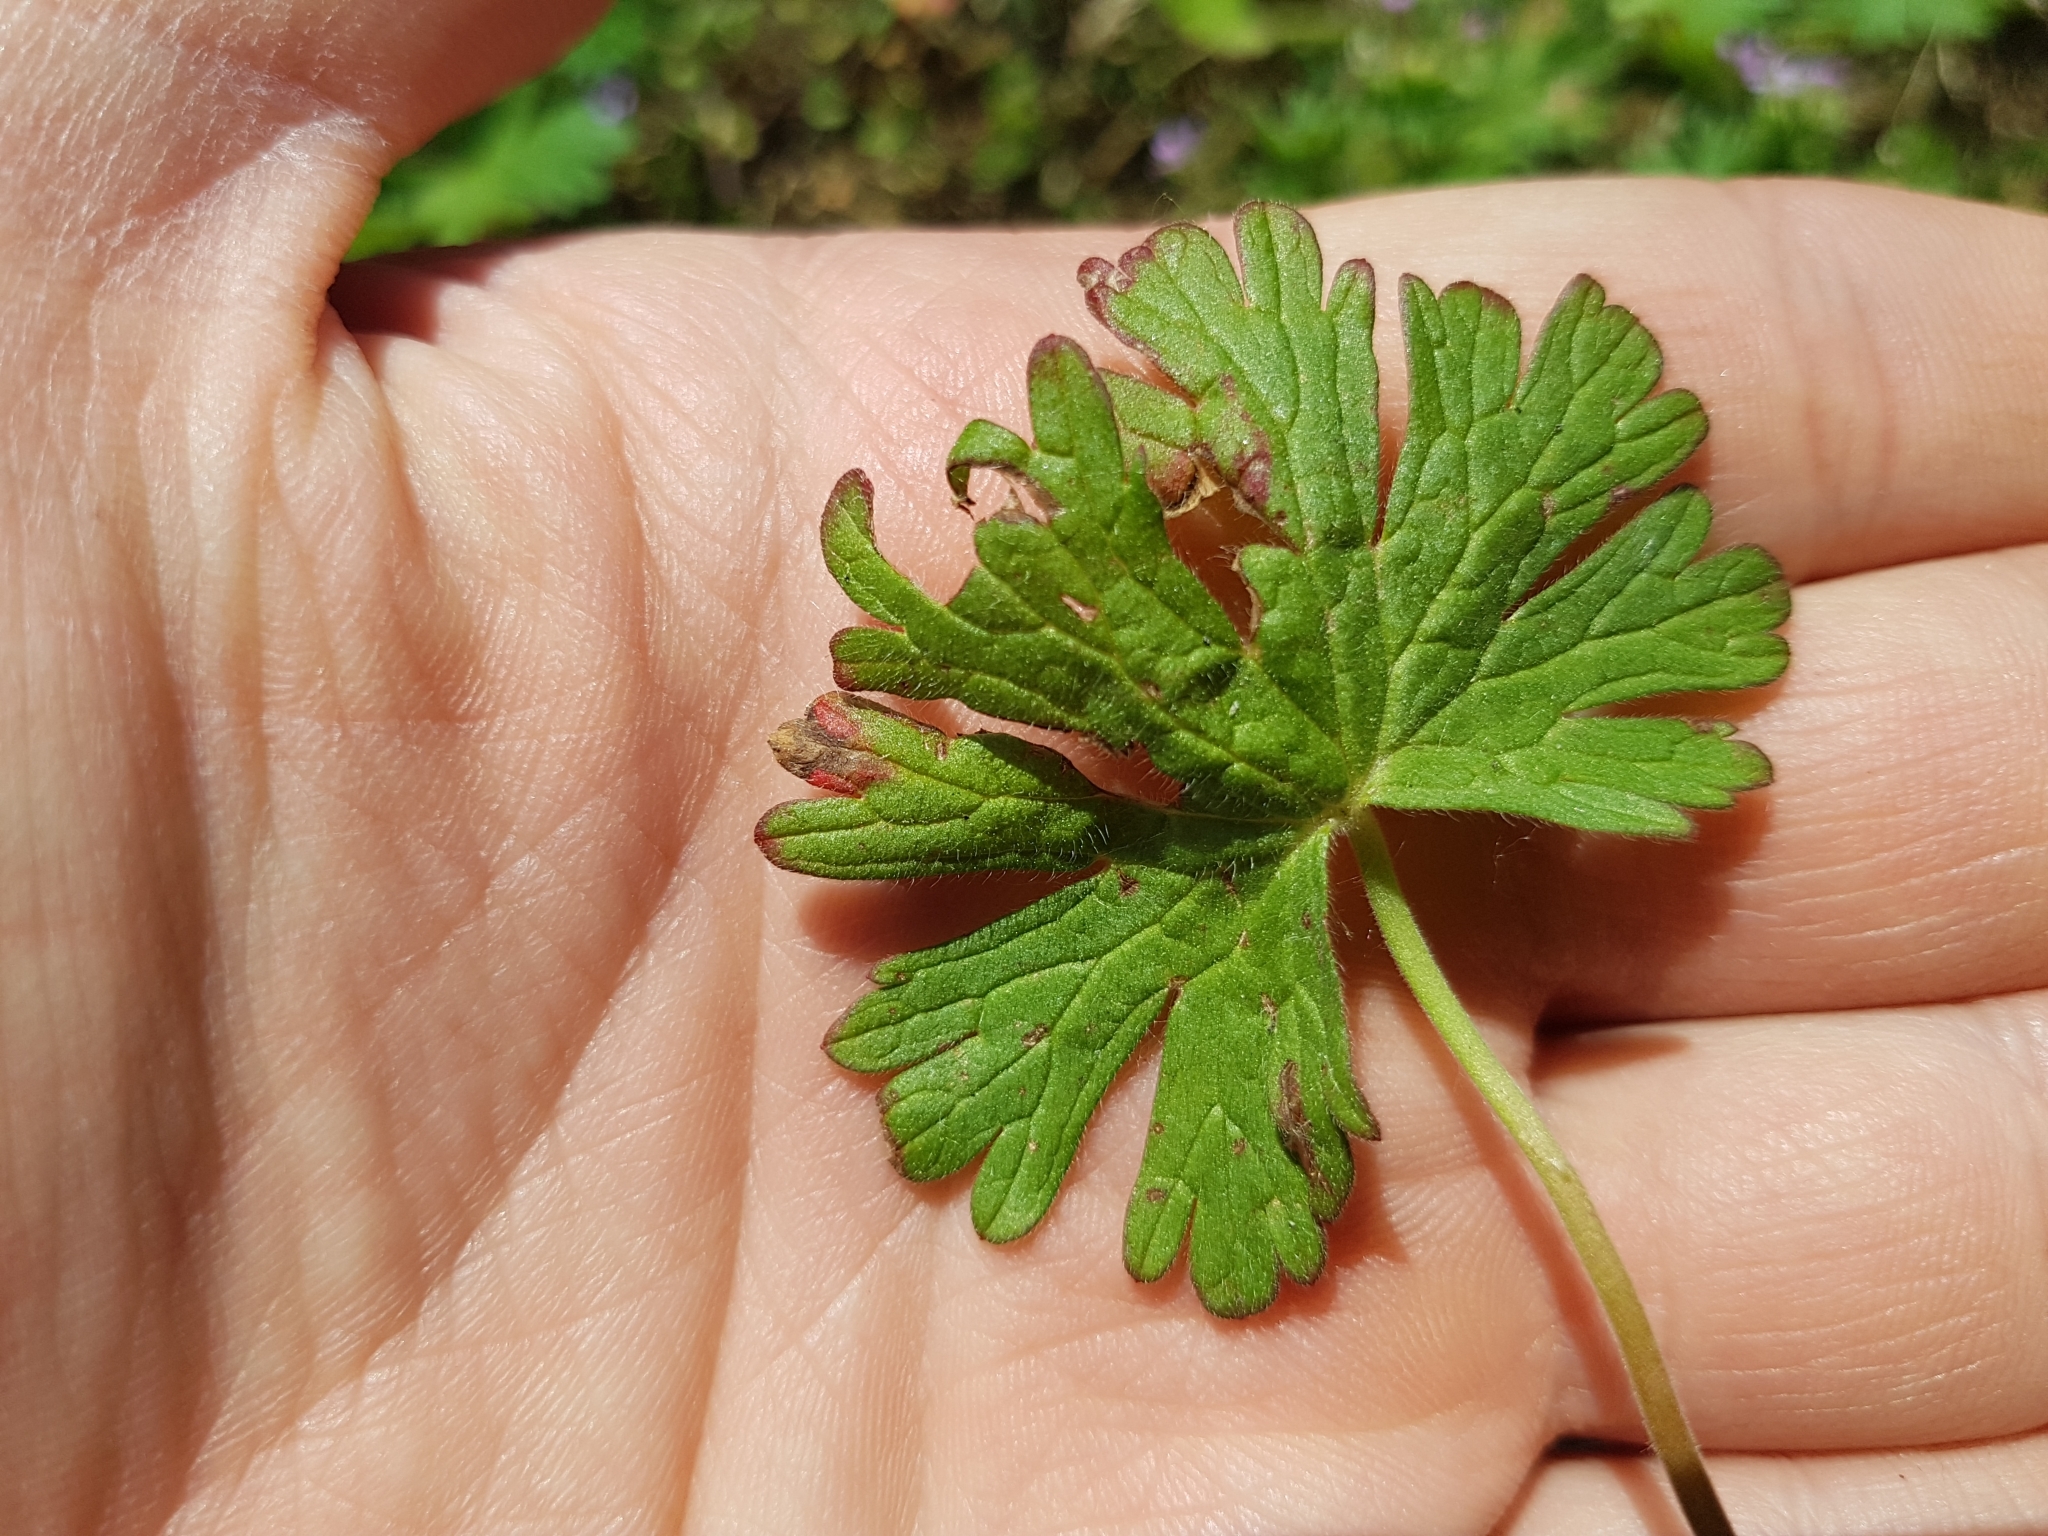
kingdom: Plantae
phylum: Tracheophyta
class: Magnoliopsida
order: Geraniales
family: Geraniaceae
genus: Geranium
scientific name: Geranium pusillum
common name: Small geranium
